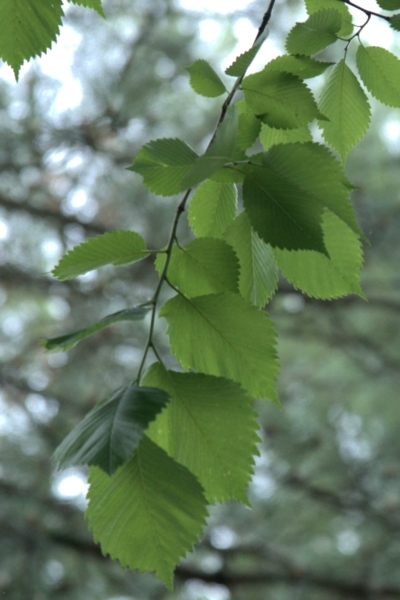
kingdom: Plantae
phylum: Tracheophyta
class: Magnoliopsida
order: Rosales
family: Ulmaceae
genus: Ulmus
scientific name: Ulmus americana
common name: American elm
